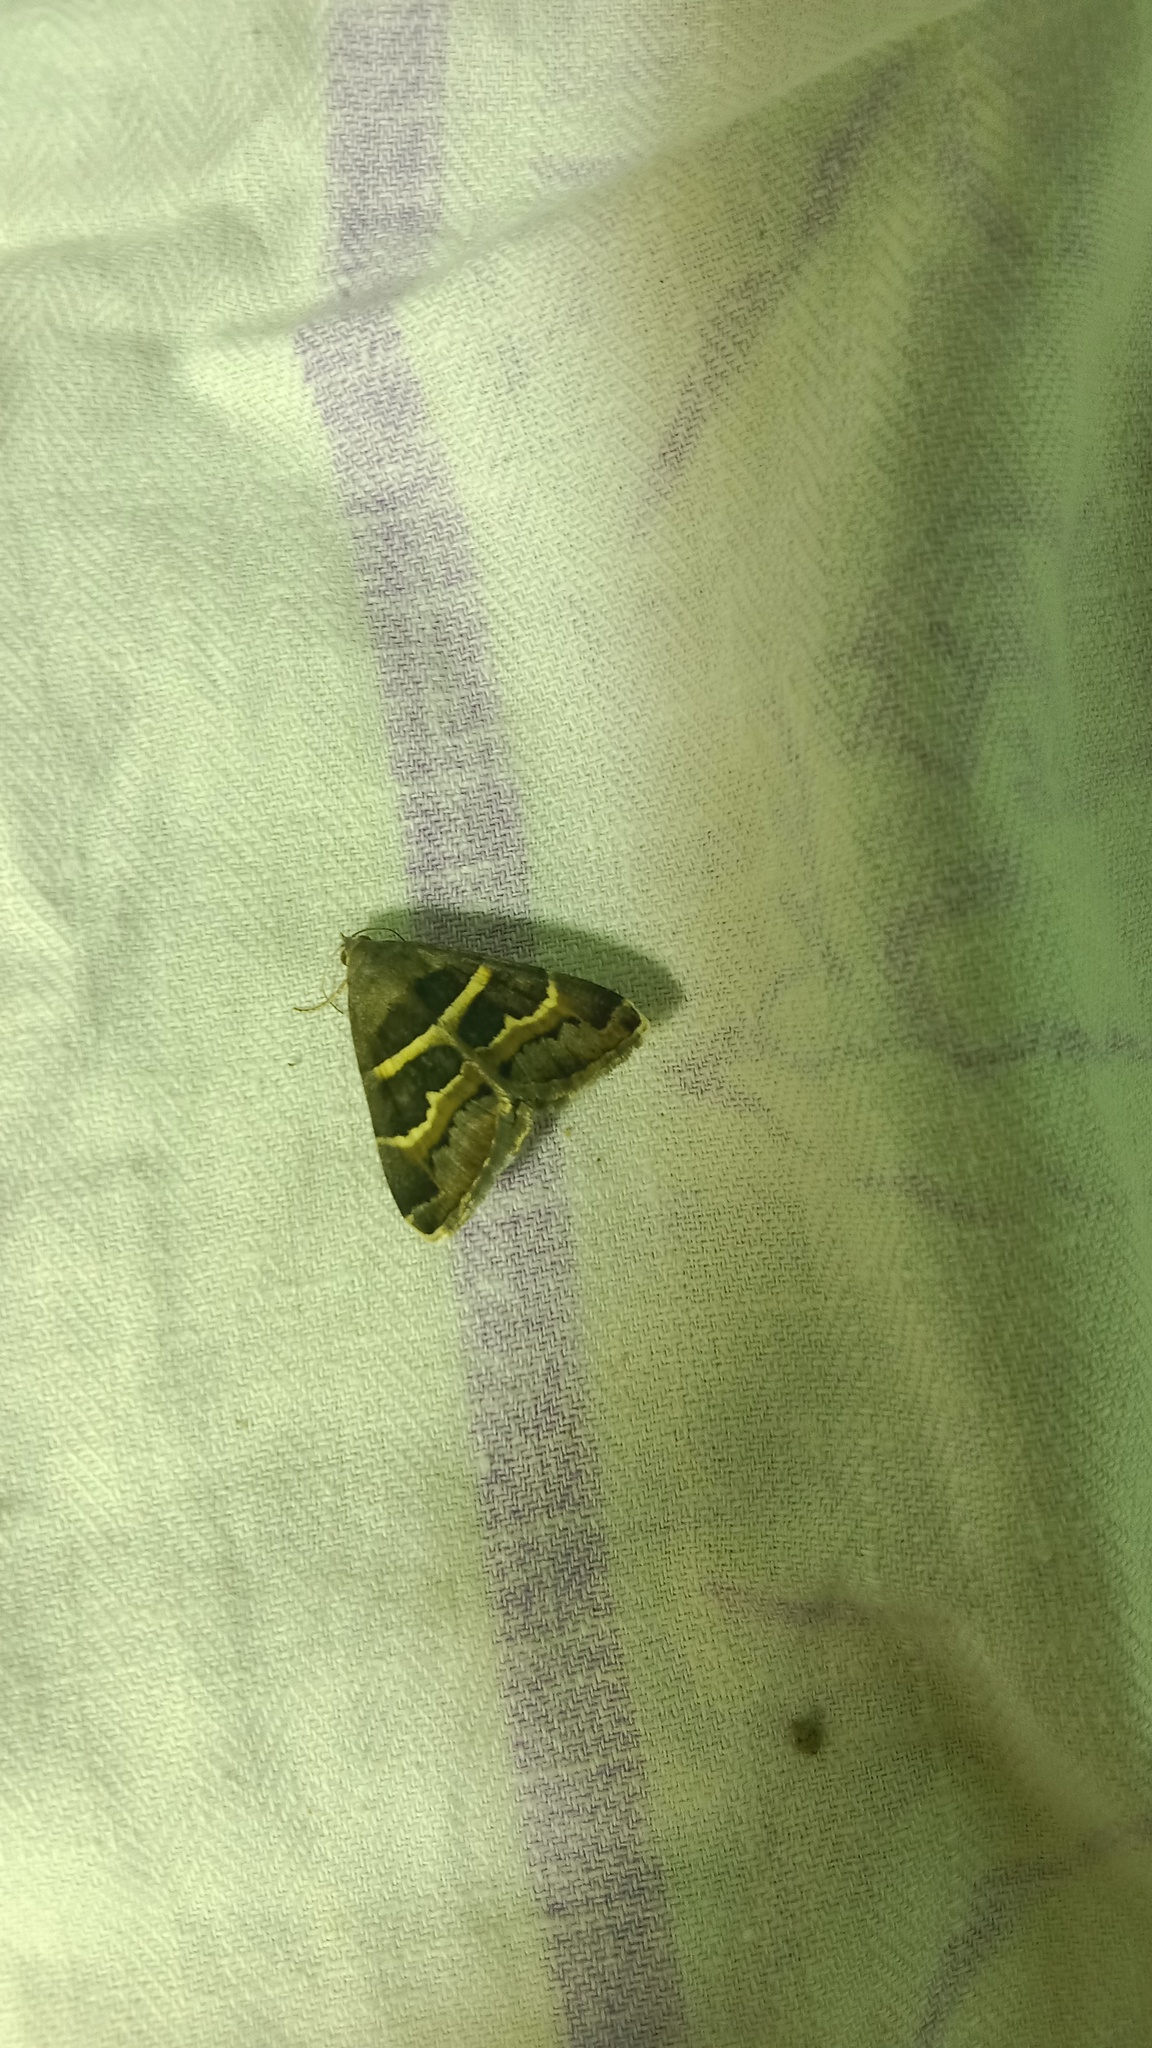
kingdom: Animalia
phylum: Arthropoda
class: Insecta
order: Lepidoptera
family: Erebidae
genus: Grammodes
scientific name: Grammodes stolida
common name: Geometrician
